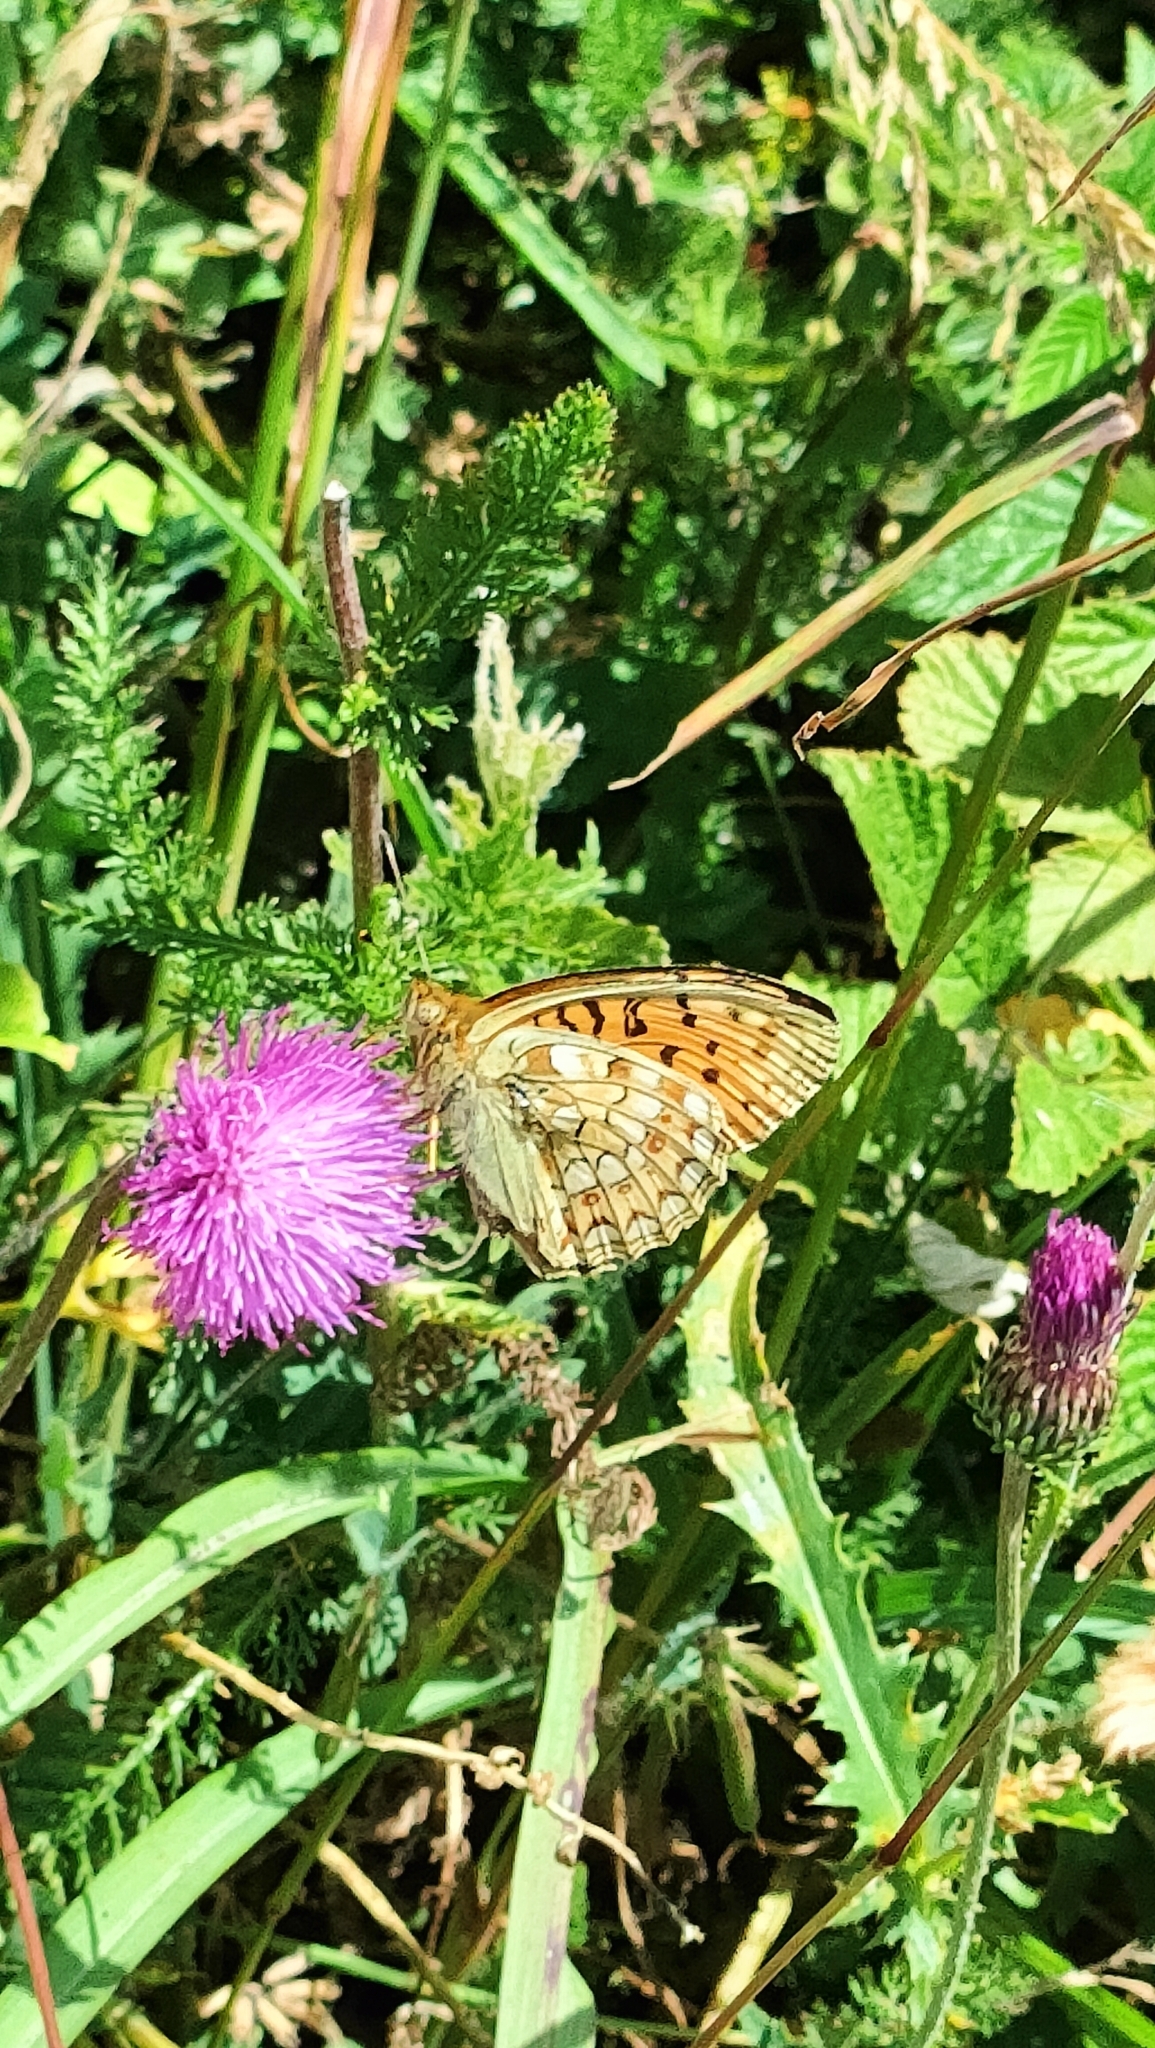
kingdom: Animalia
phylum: Arthropoda
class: Insecta
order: Lepidoptera
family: Nymphalidae
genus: Fabriciana
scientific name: Fabriciana niobe
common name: Niobe fritillary
